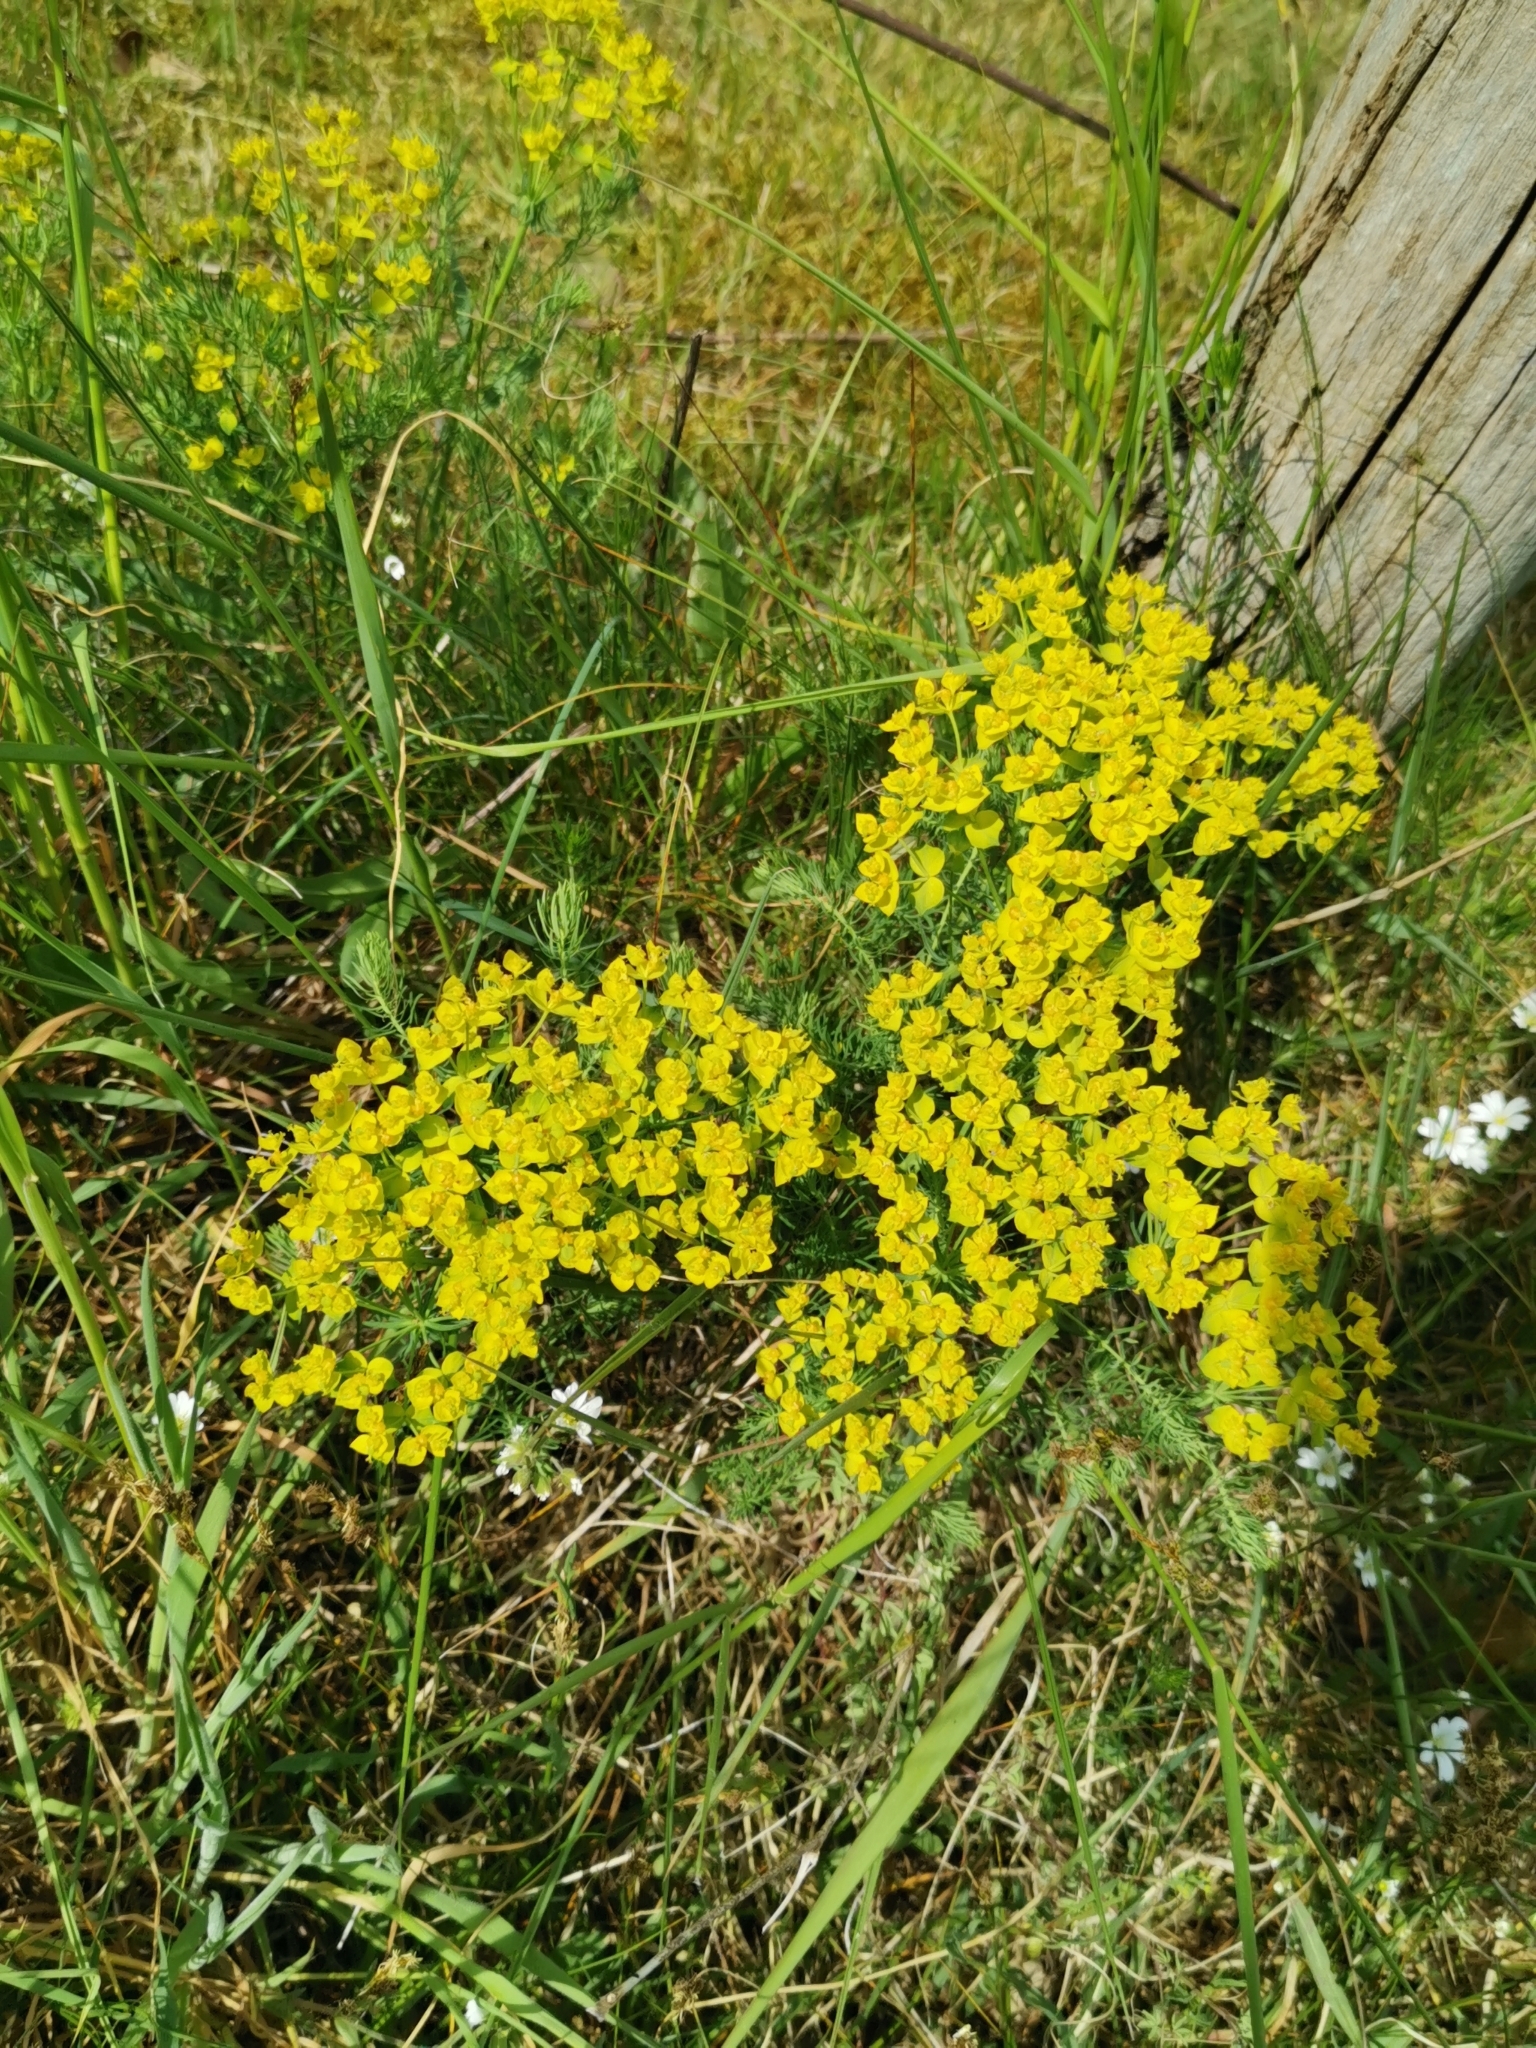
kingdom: Plantae
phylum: Tracheophyta
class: Magnoliopsida
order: Malpighiales
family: Euphorbiaceae
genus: Euphorbia
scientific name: Euphorbia cyparissias
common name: Cypress spurge
